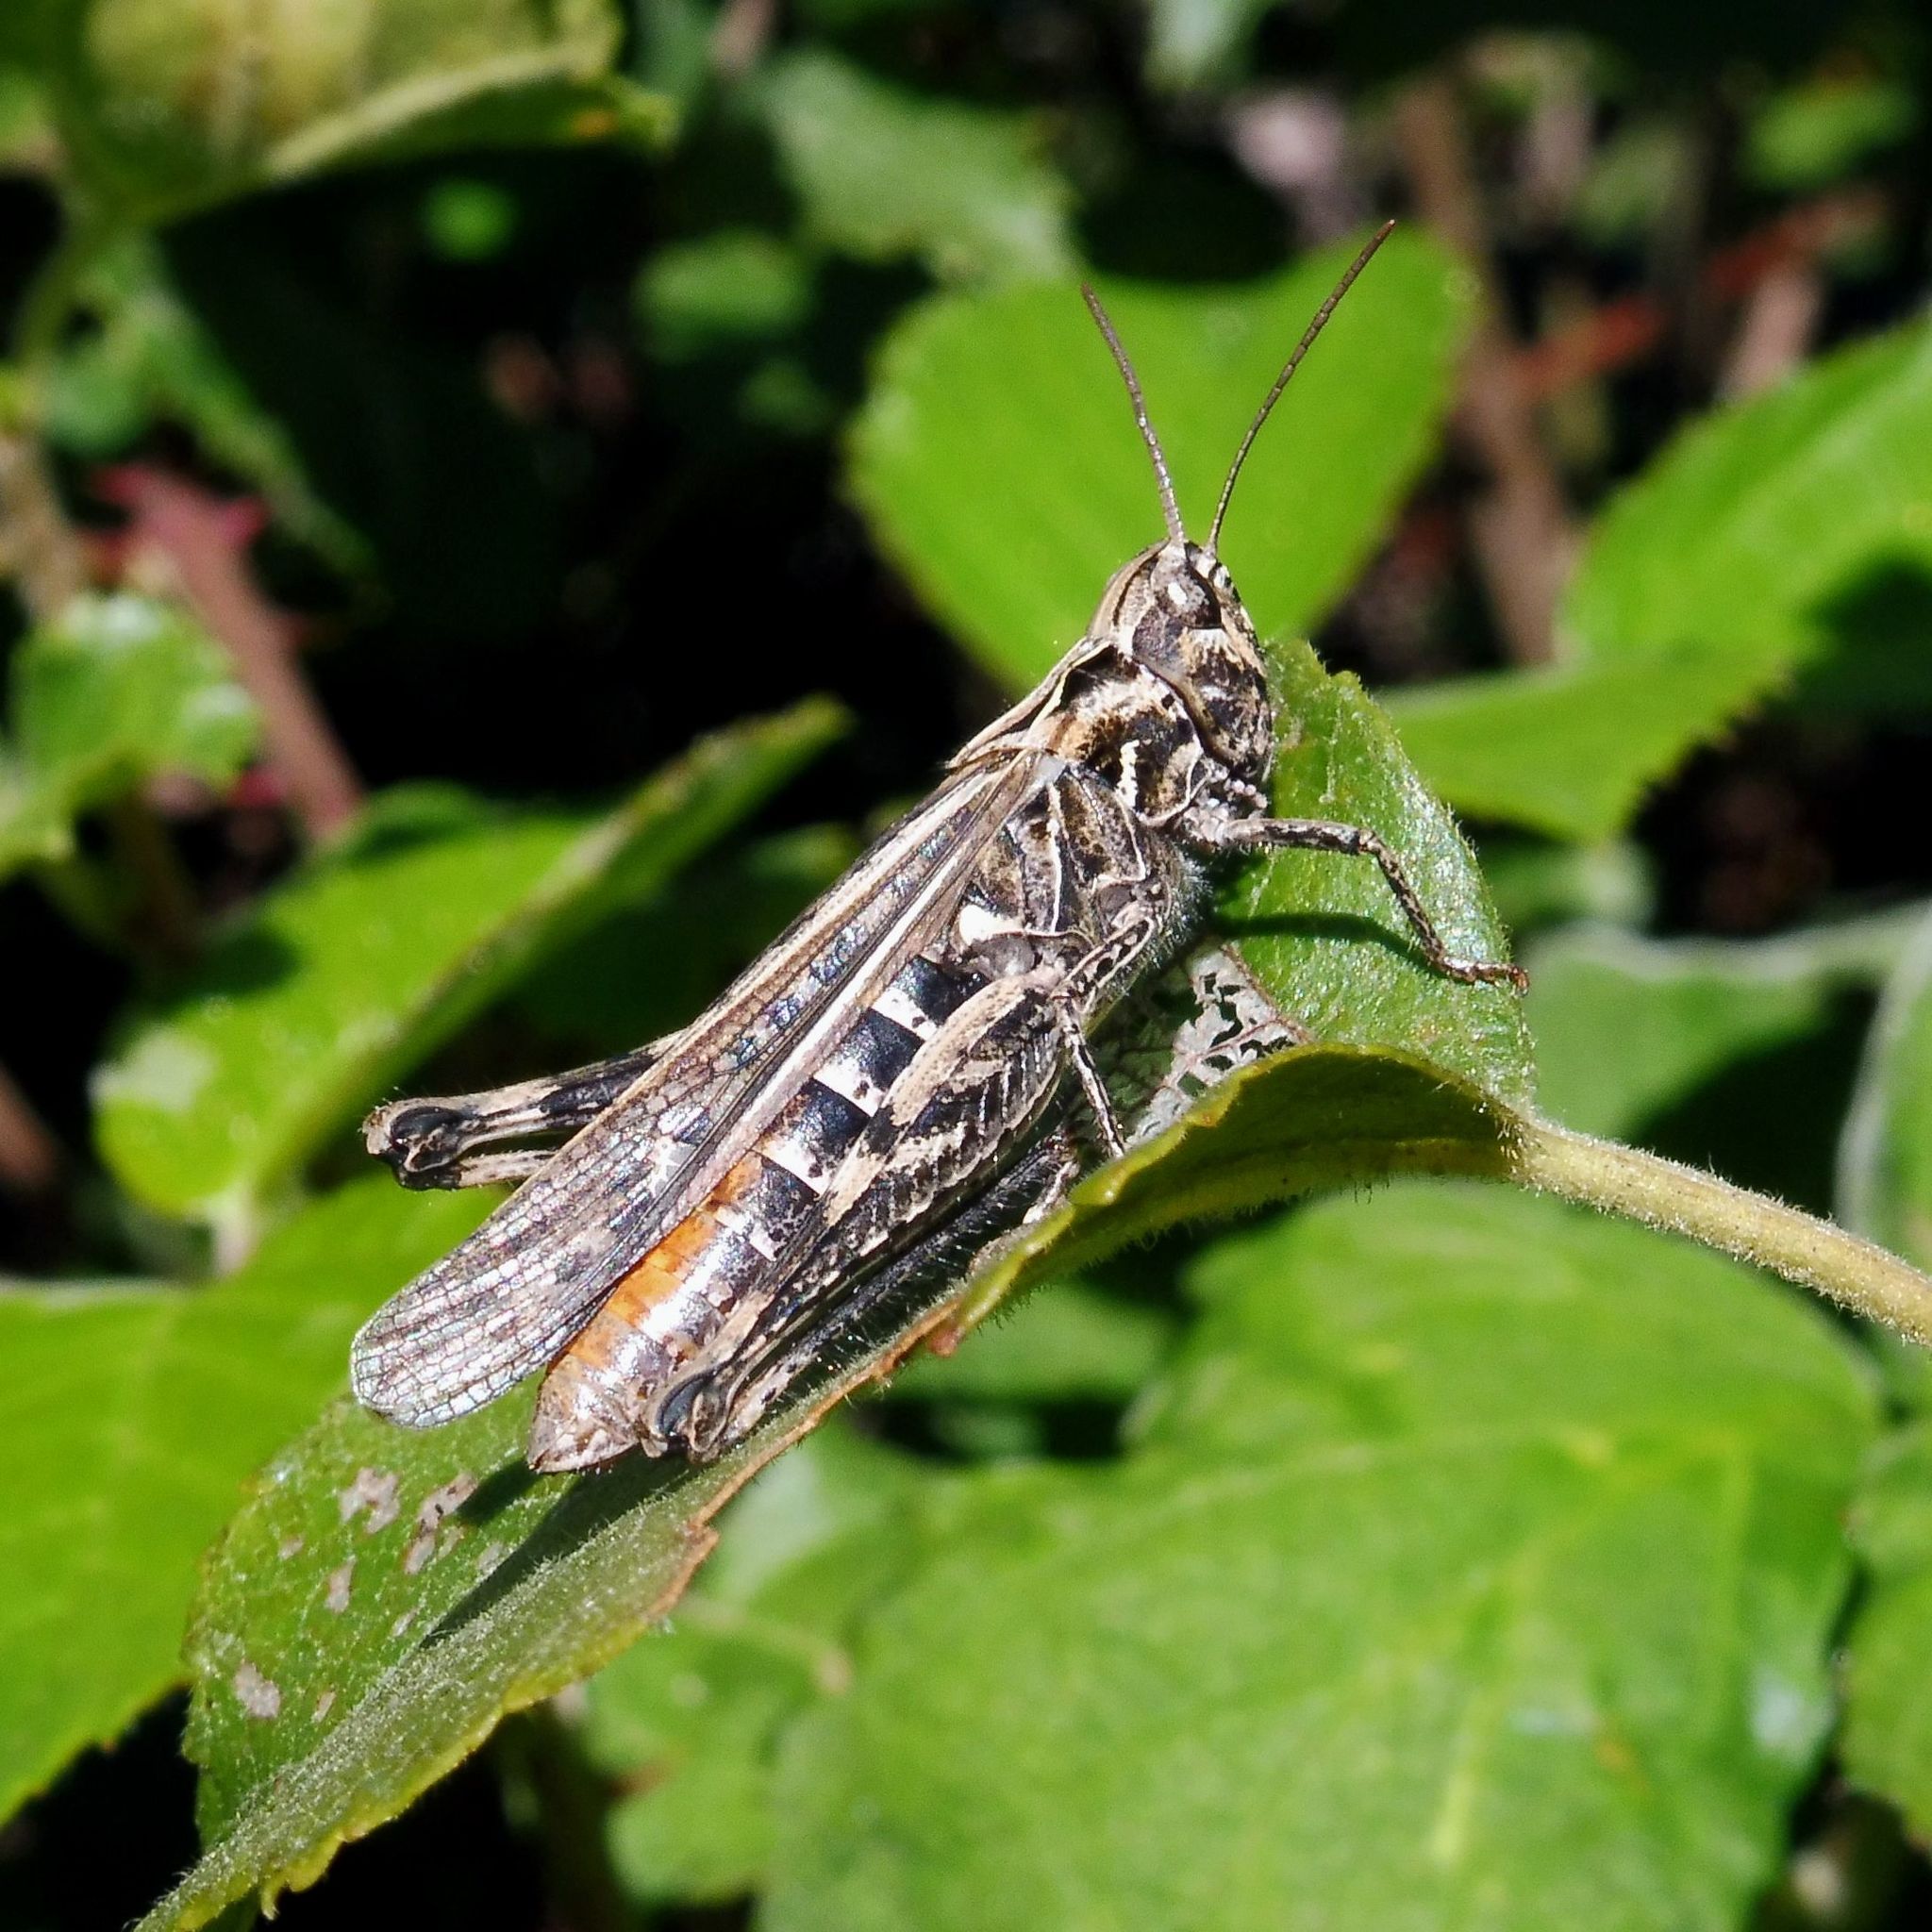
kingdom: Animalia
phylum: Arthropoda
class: Insecta
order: Orthoptera
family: Acrididae
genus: Chorthippus
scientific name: Chorthippus brunneus
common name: Field grasshopper
